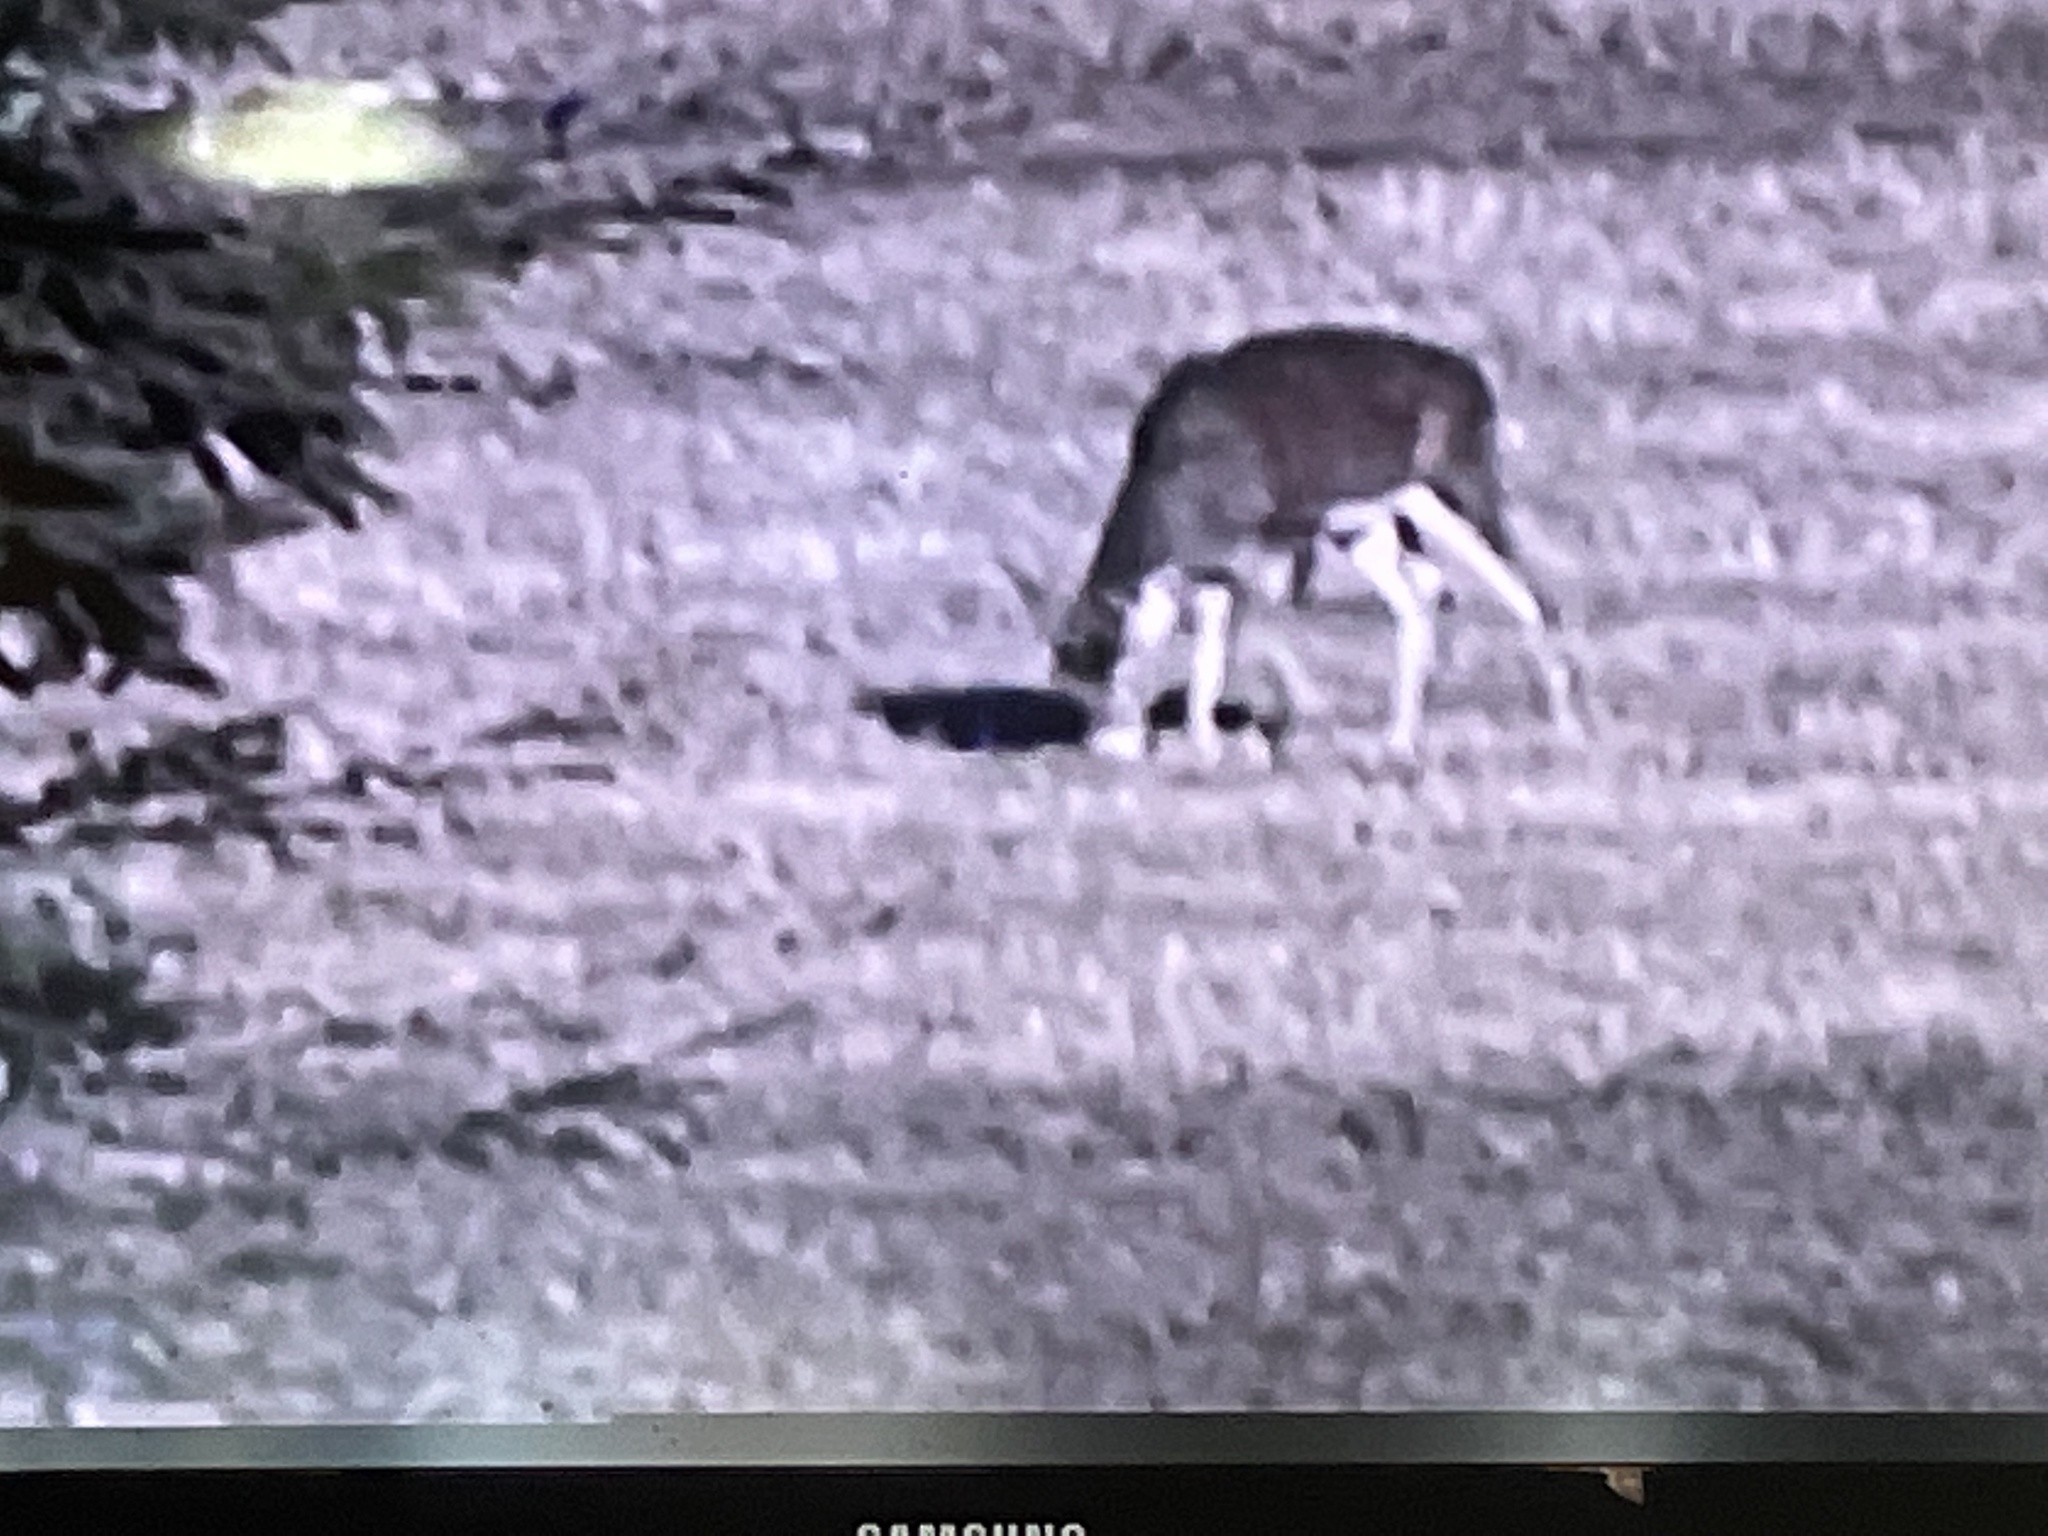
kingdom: Animalia
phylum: Chordata
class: Mammalia
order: Artiodactyla
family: Cervidae
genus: Odocoileus
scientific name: Odocoileus virginianus
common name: White-tailed deer
